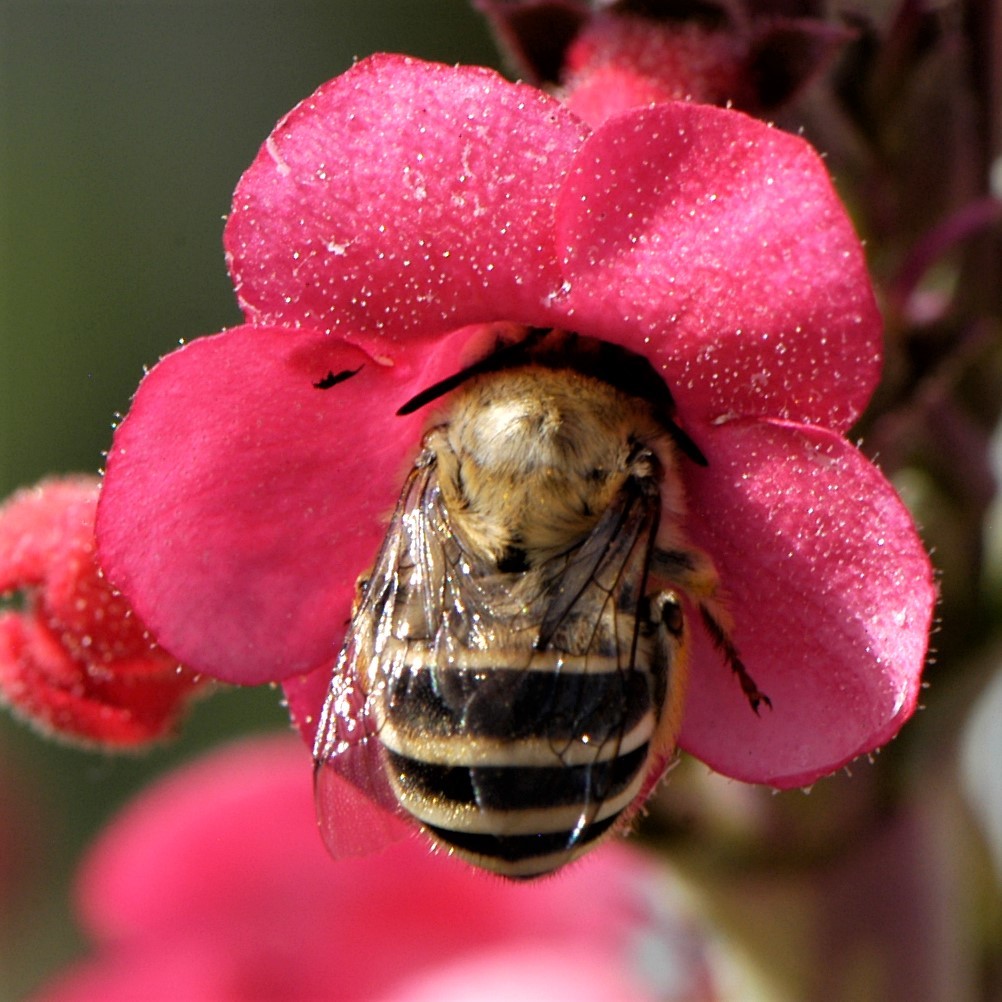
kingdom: Animalia
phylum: Arthropoda
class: Insecta
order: Hymenoptera
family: Apidae
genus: Anthophora
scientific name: Anthophora californica
